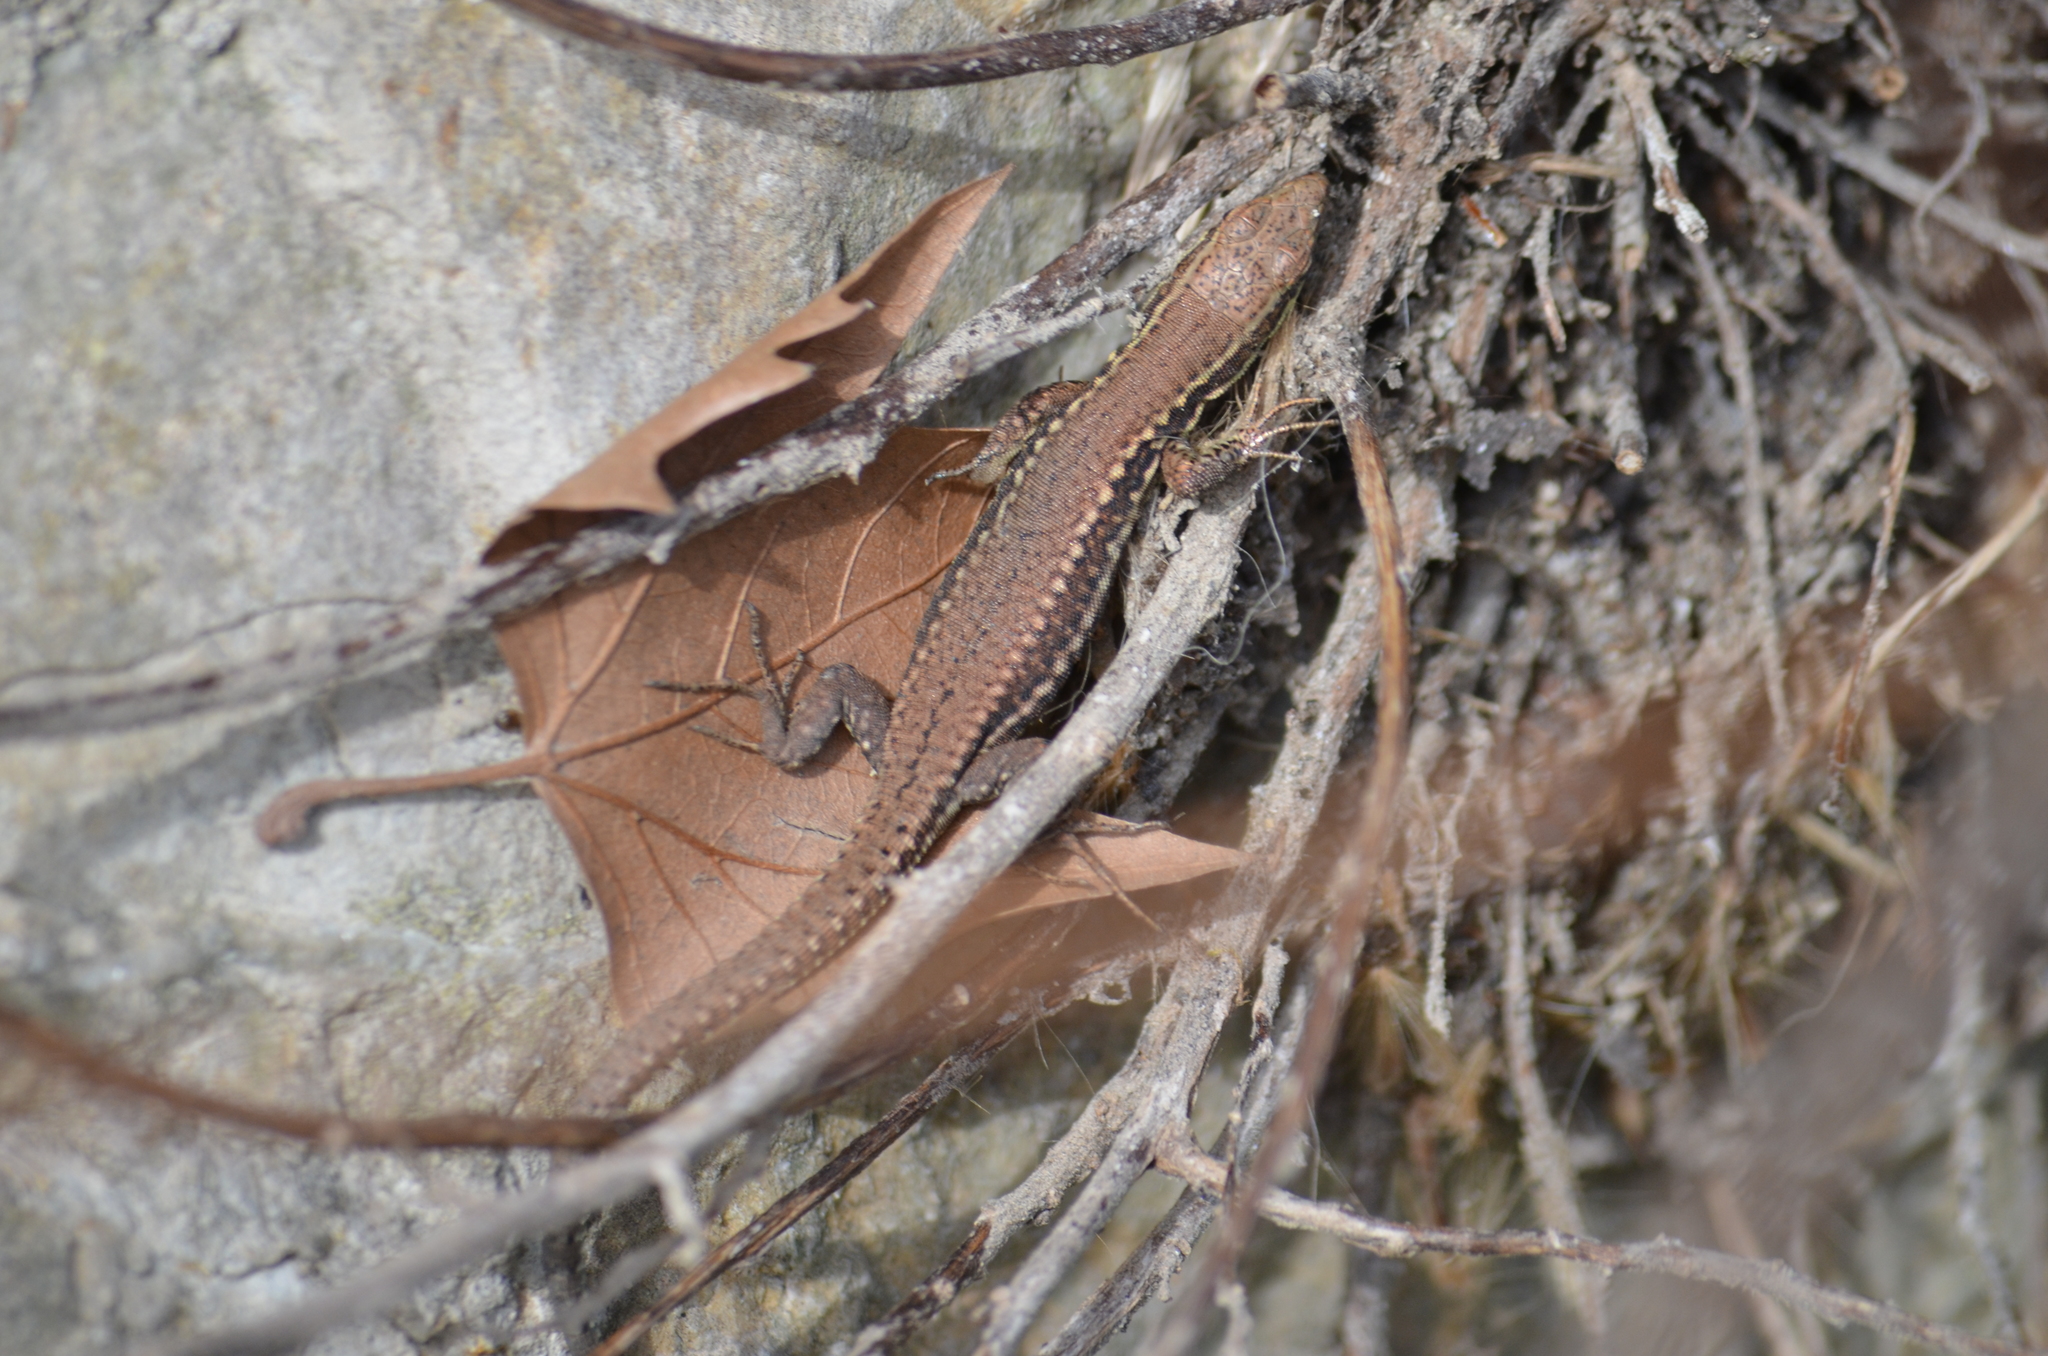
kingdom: Animalia
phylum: Chordata
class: Squamata
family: Lacertidae
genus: Podarcis
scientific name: Podarcis muralis
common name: Common wall lizard
